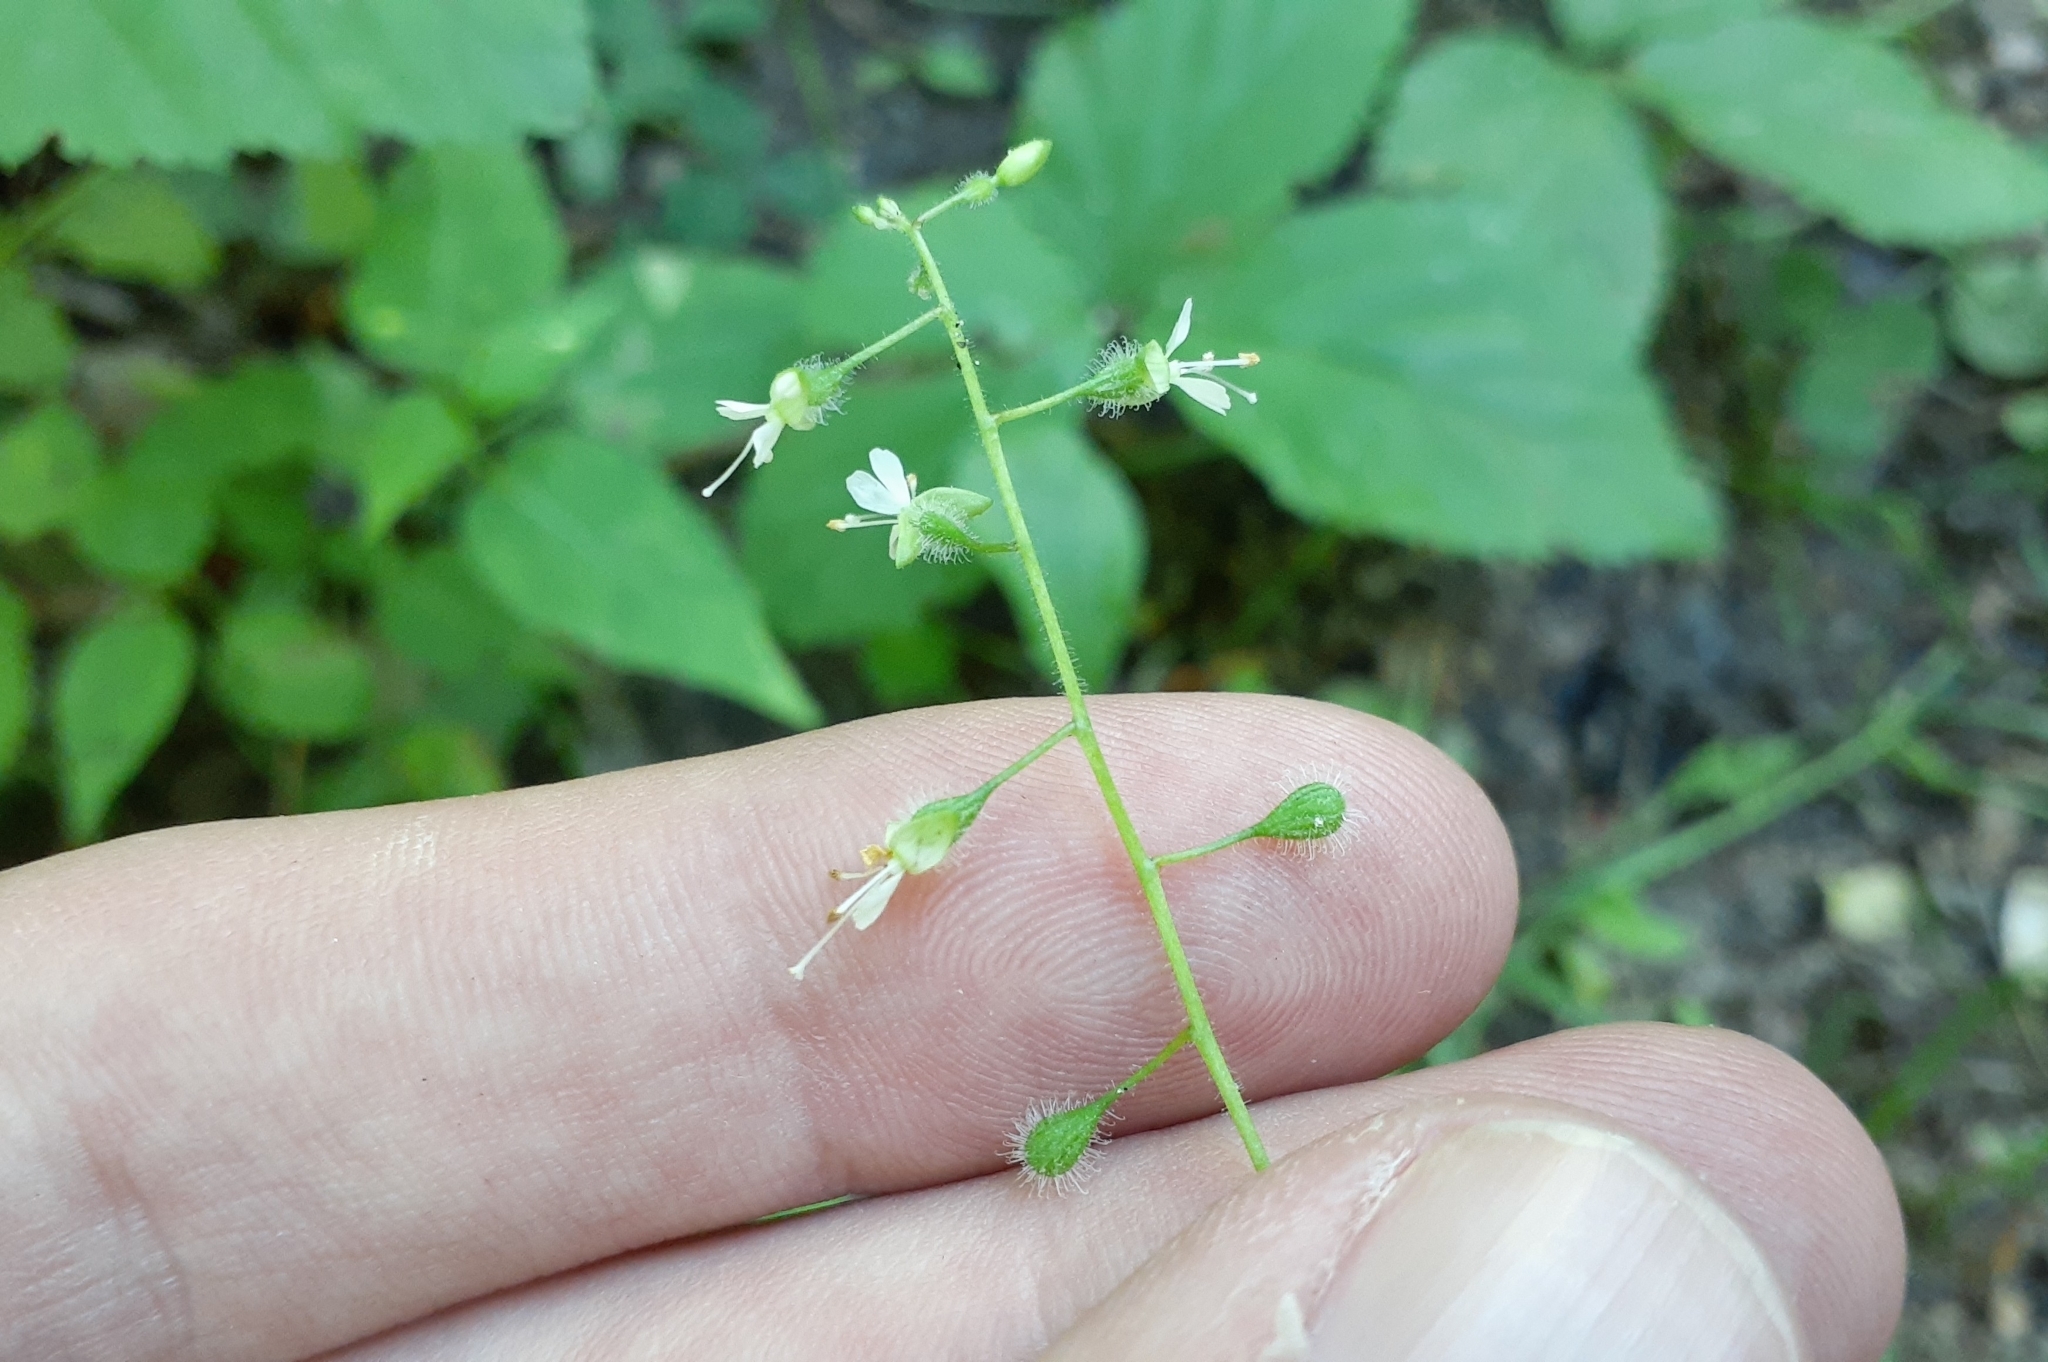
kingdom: Plantae
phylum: Tracheophyta
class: Magnoliopsida
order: Myrtales
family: Onagraceae
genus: Circaea
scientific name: Circaea canadensis
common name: Broad-leaved enchanter's nightshade
